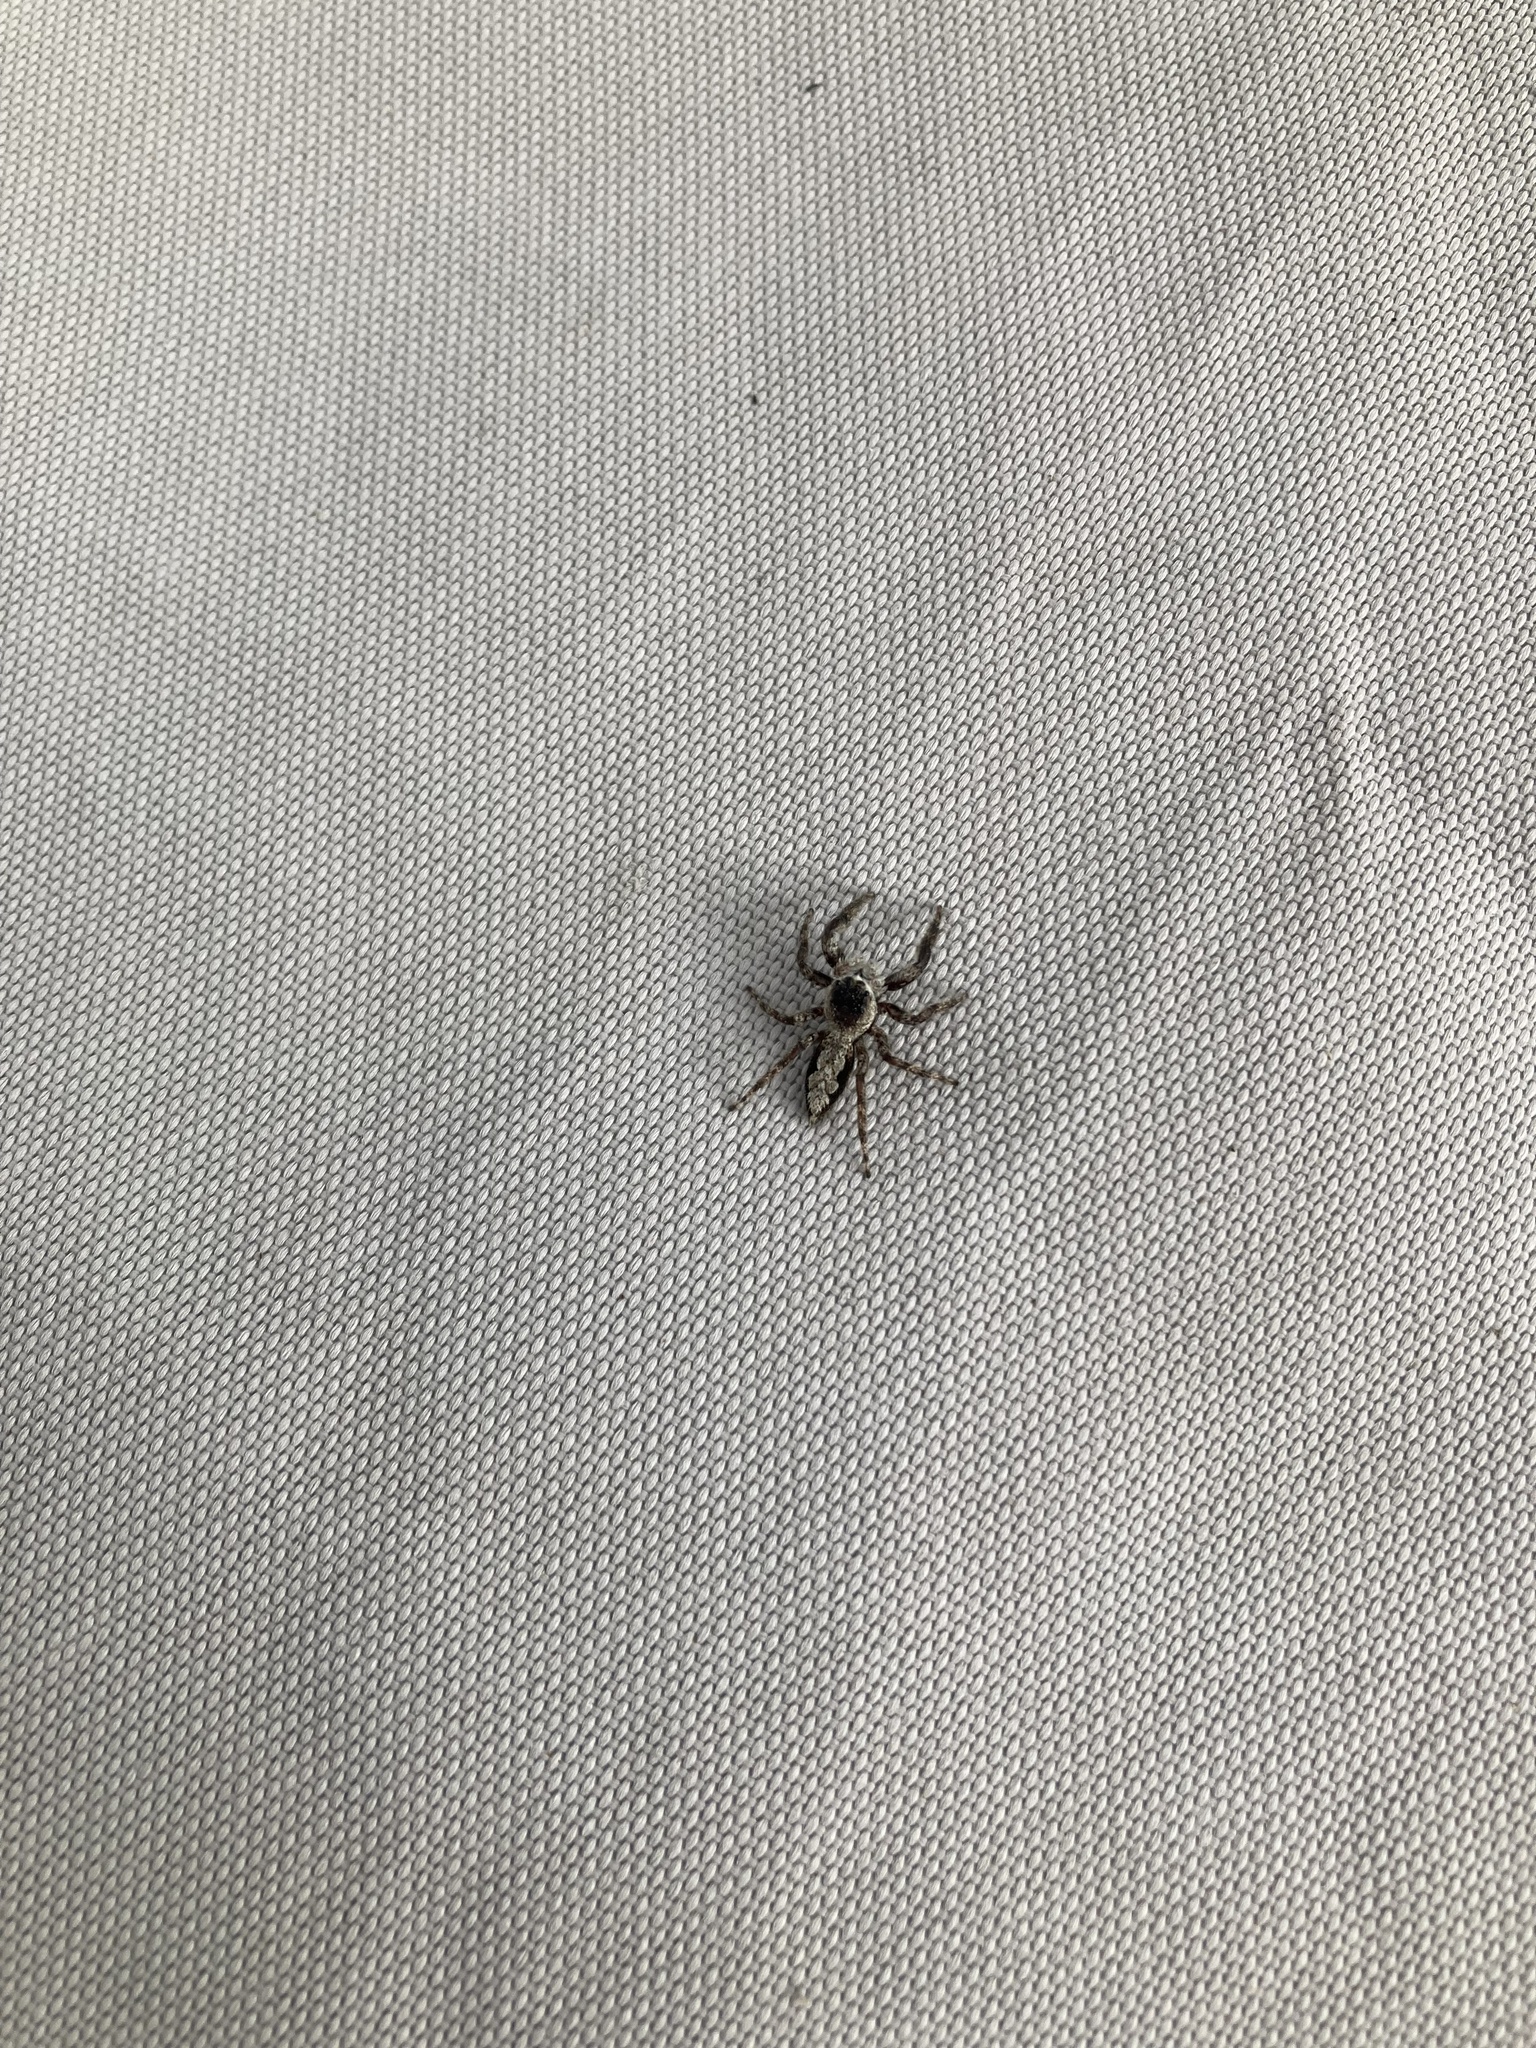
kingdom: Animalia
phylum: Arthropoda
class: Arachnida
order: Araneae
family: Salticidae
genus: Platycryptus
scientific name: Platycryptus undatus
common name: Tan jumping spider
